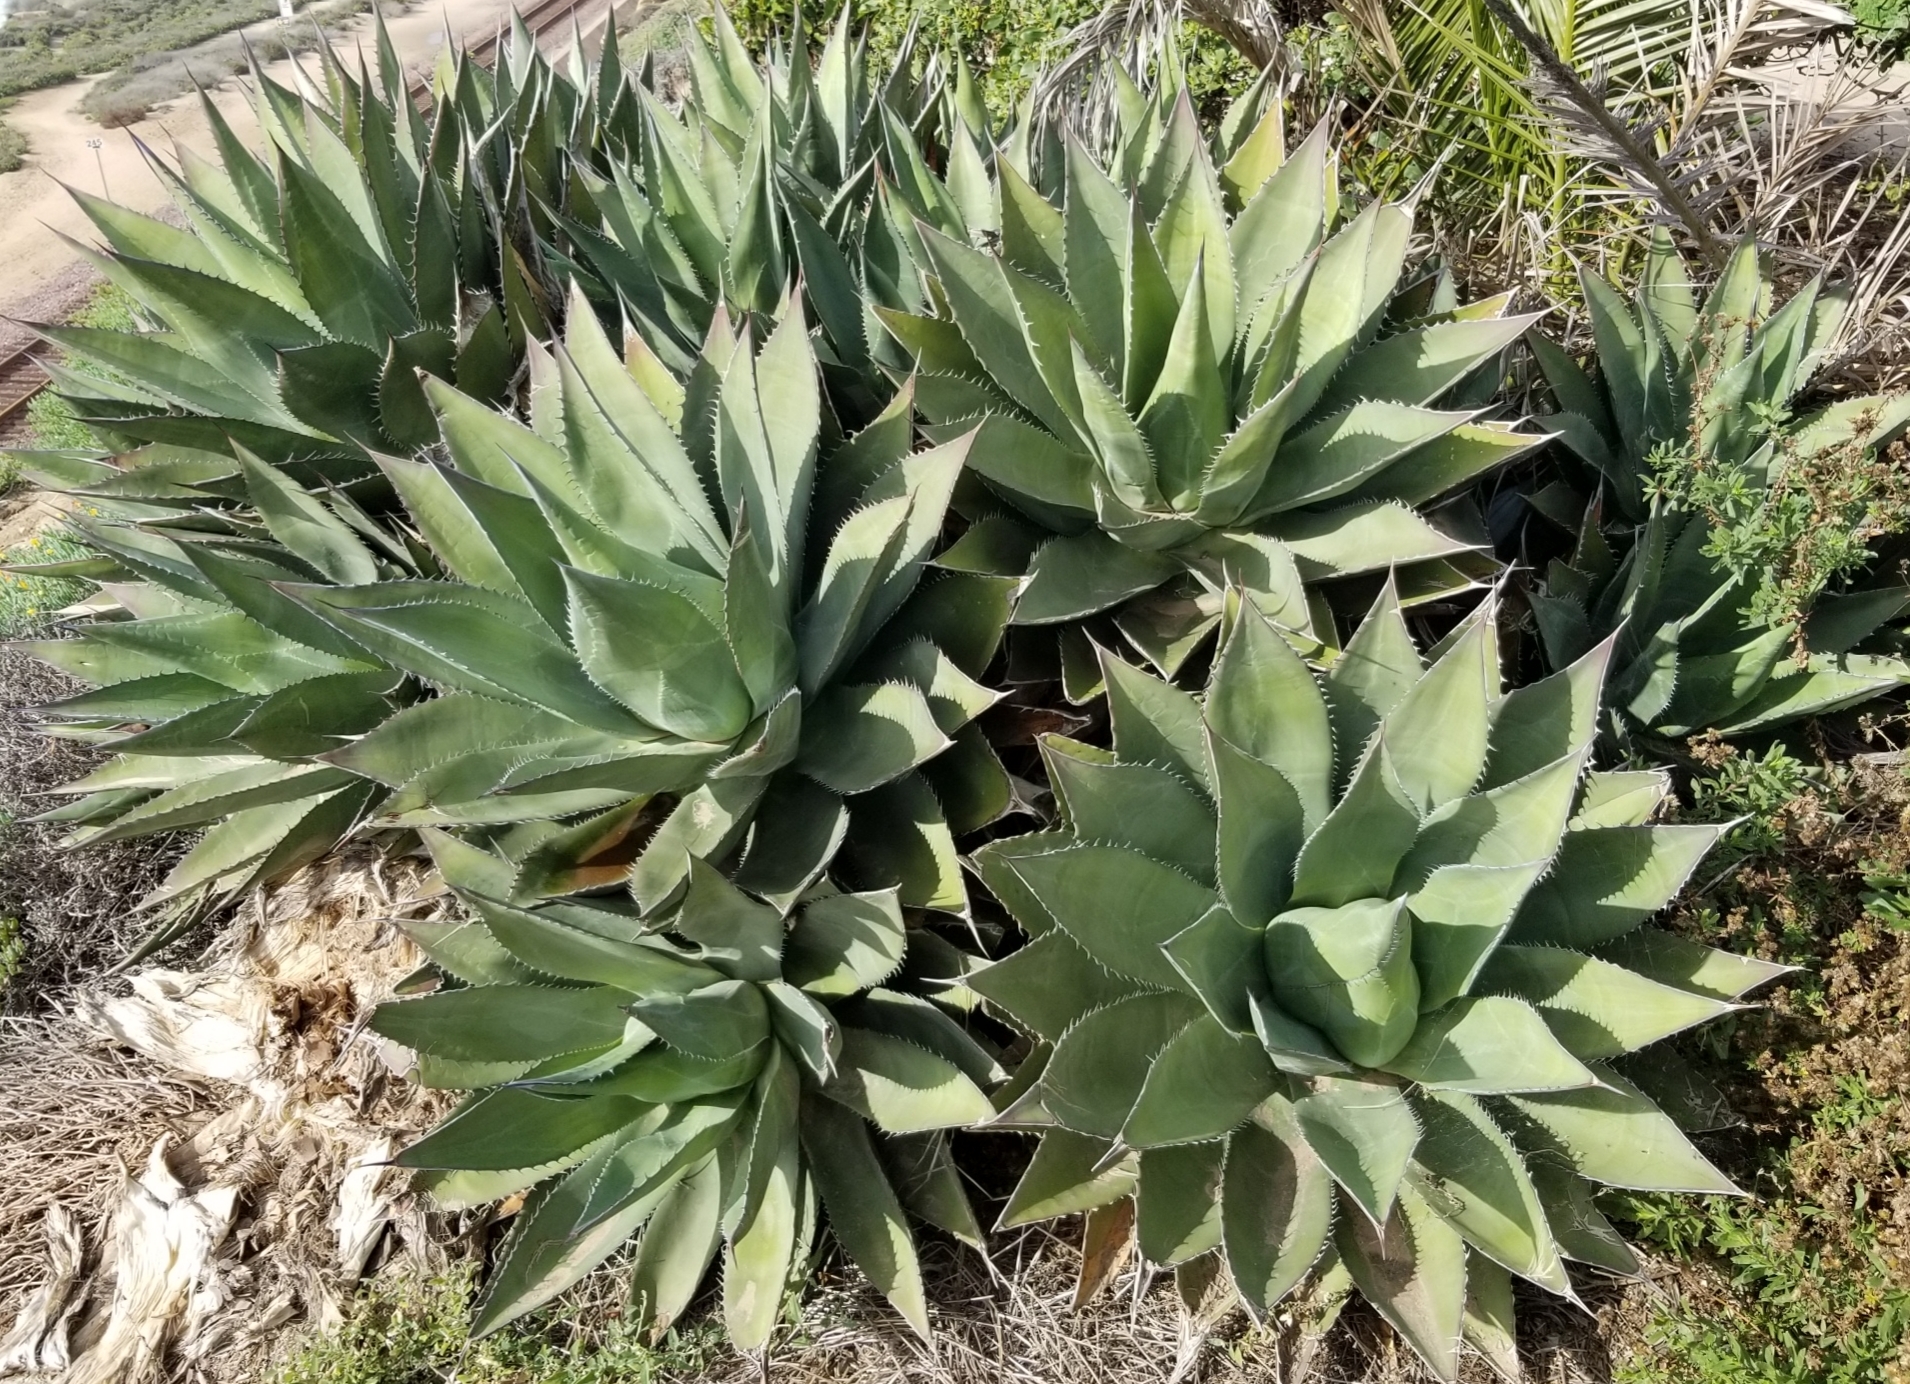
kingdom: Plantae
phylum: Tracheophyta
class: Liliopsida
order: Asparagales
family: Asparagaceae
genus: Agave
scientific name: Agave shawii
